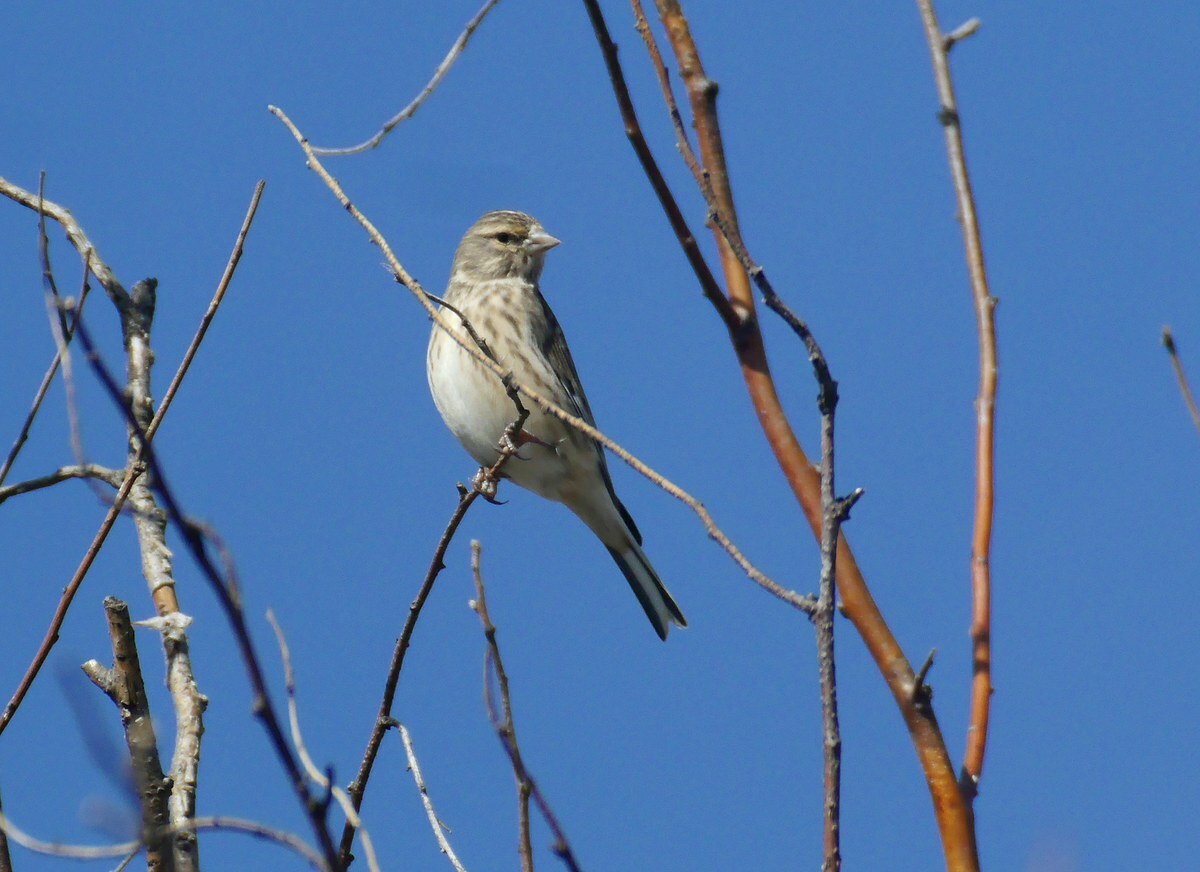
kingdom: Animalia
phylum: Chordata
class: Aves
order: Passeriformes
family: Fringillidae
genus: Linaria
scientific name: Linaria cannabina
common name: Common linnet
